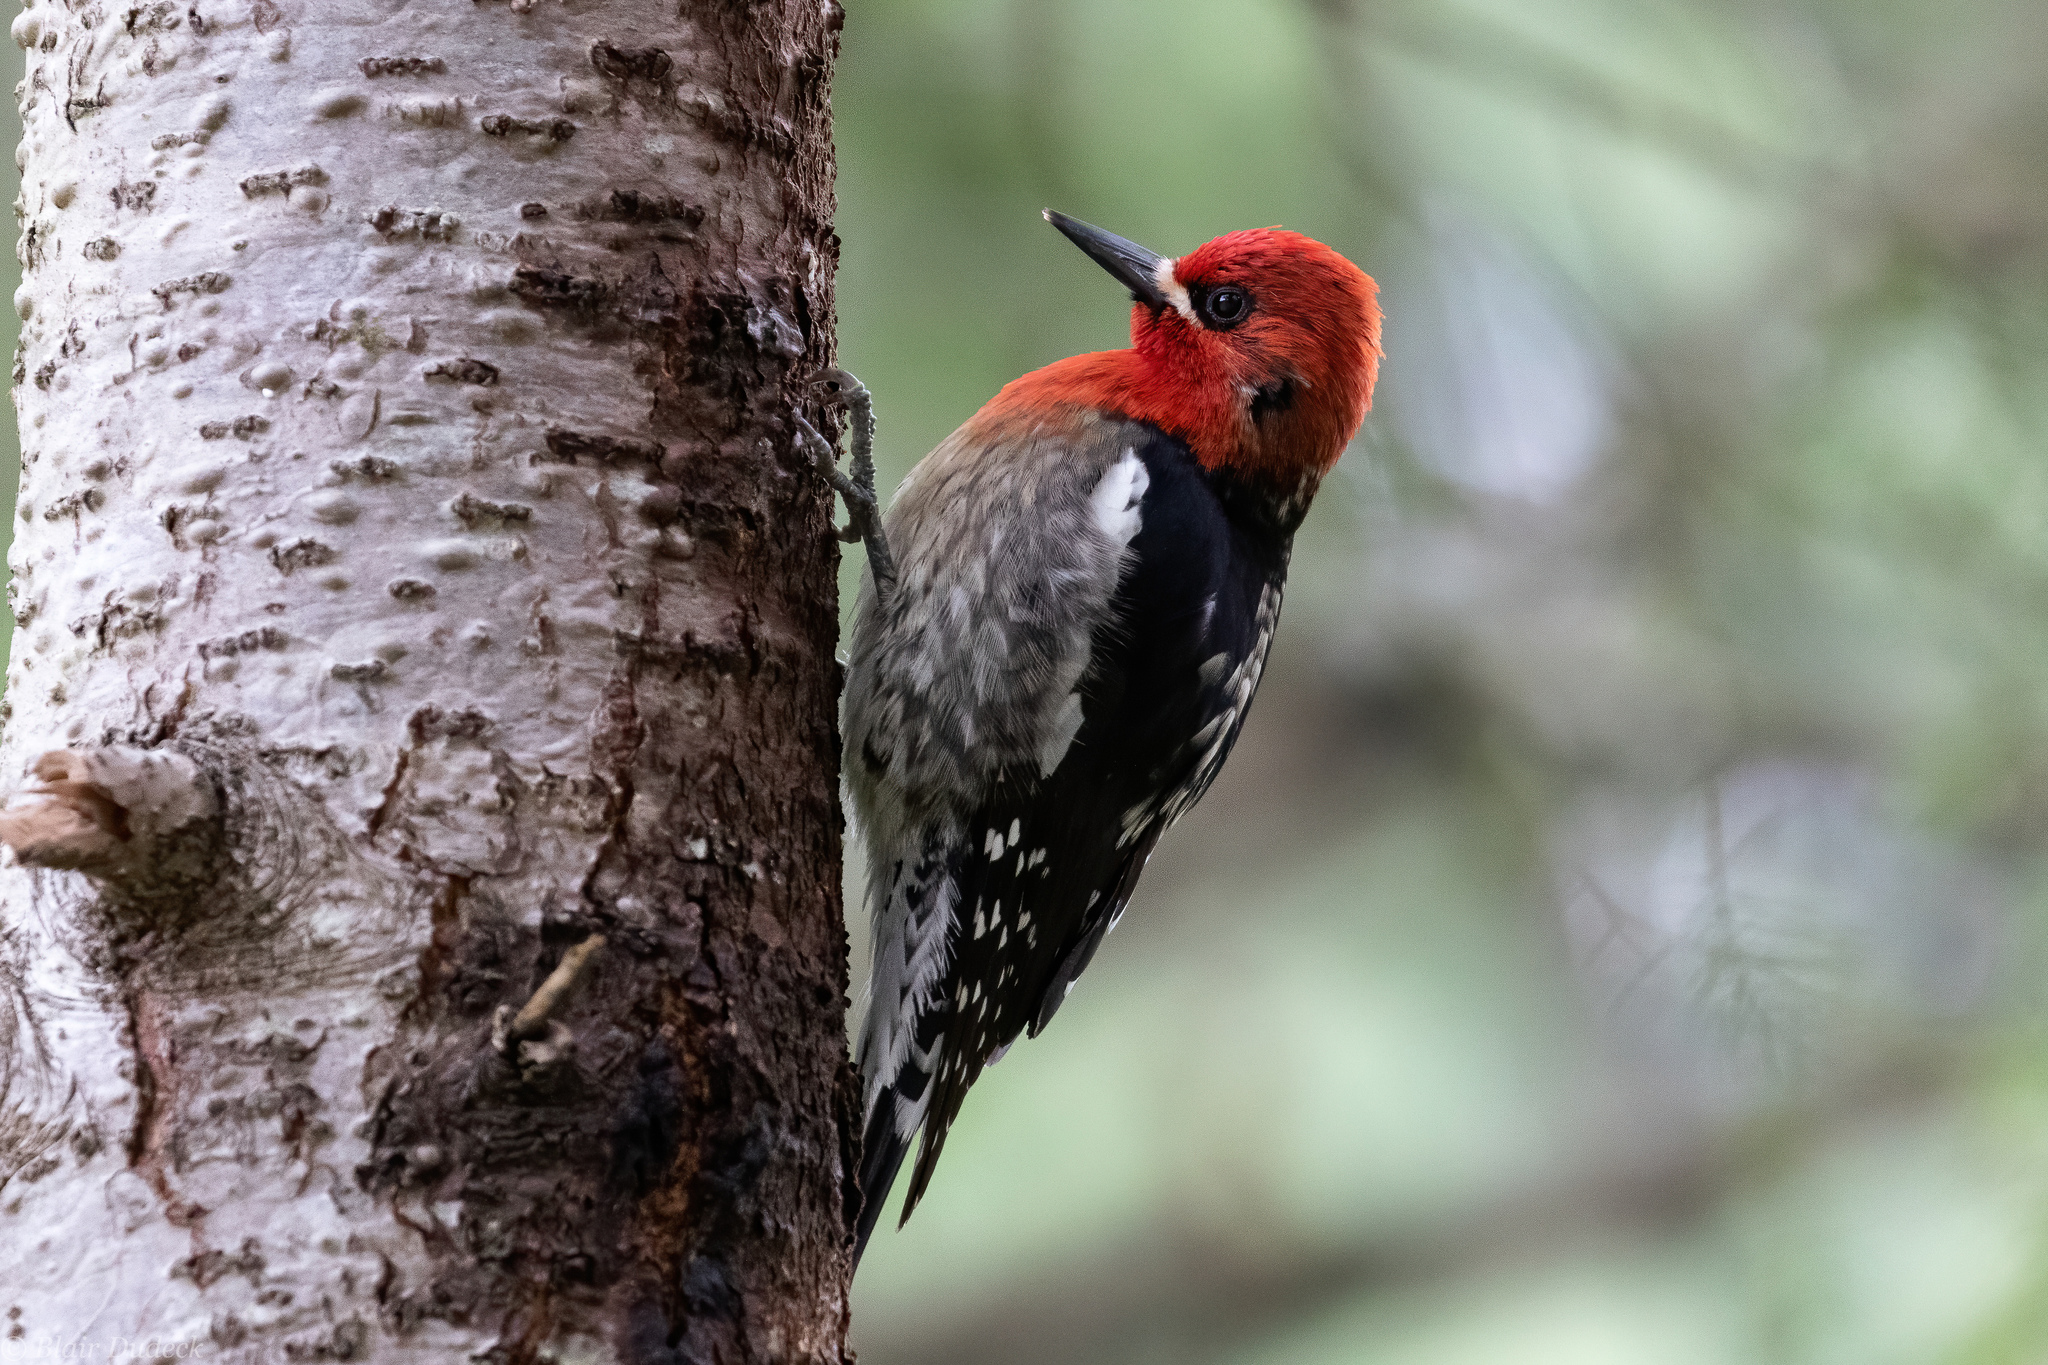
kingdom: Animalia
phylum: Chordata
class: Aves
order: Piciformes
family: Picidae
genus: Sphyrapicus
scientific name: Sphyrapicus ruber
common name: Red-breasted sapsucker
